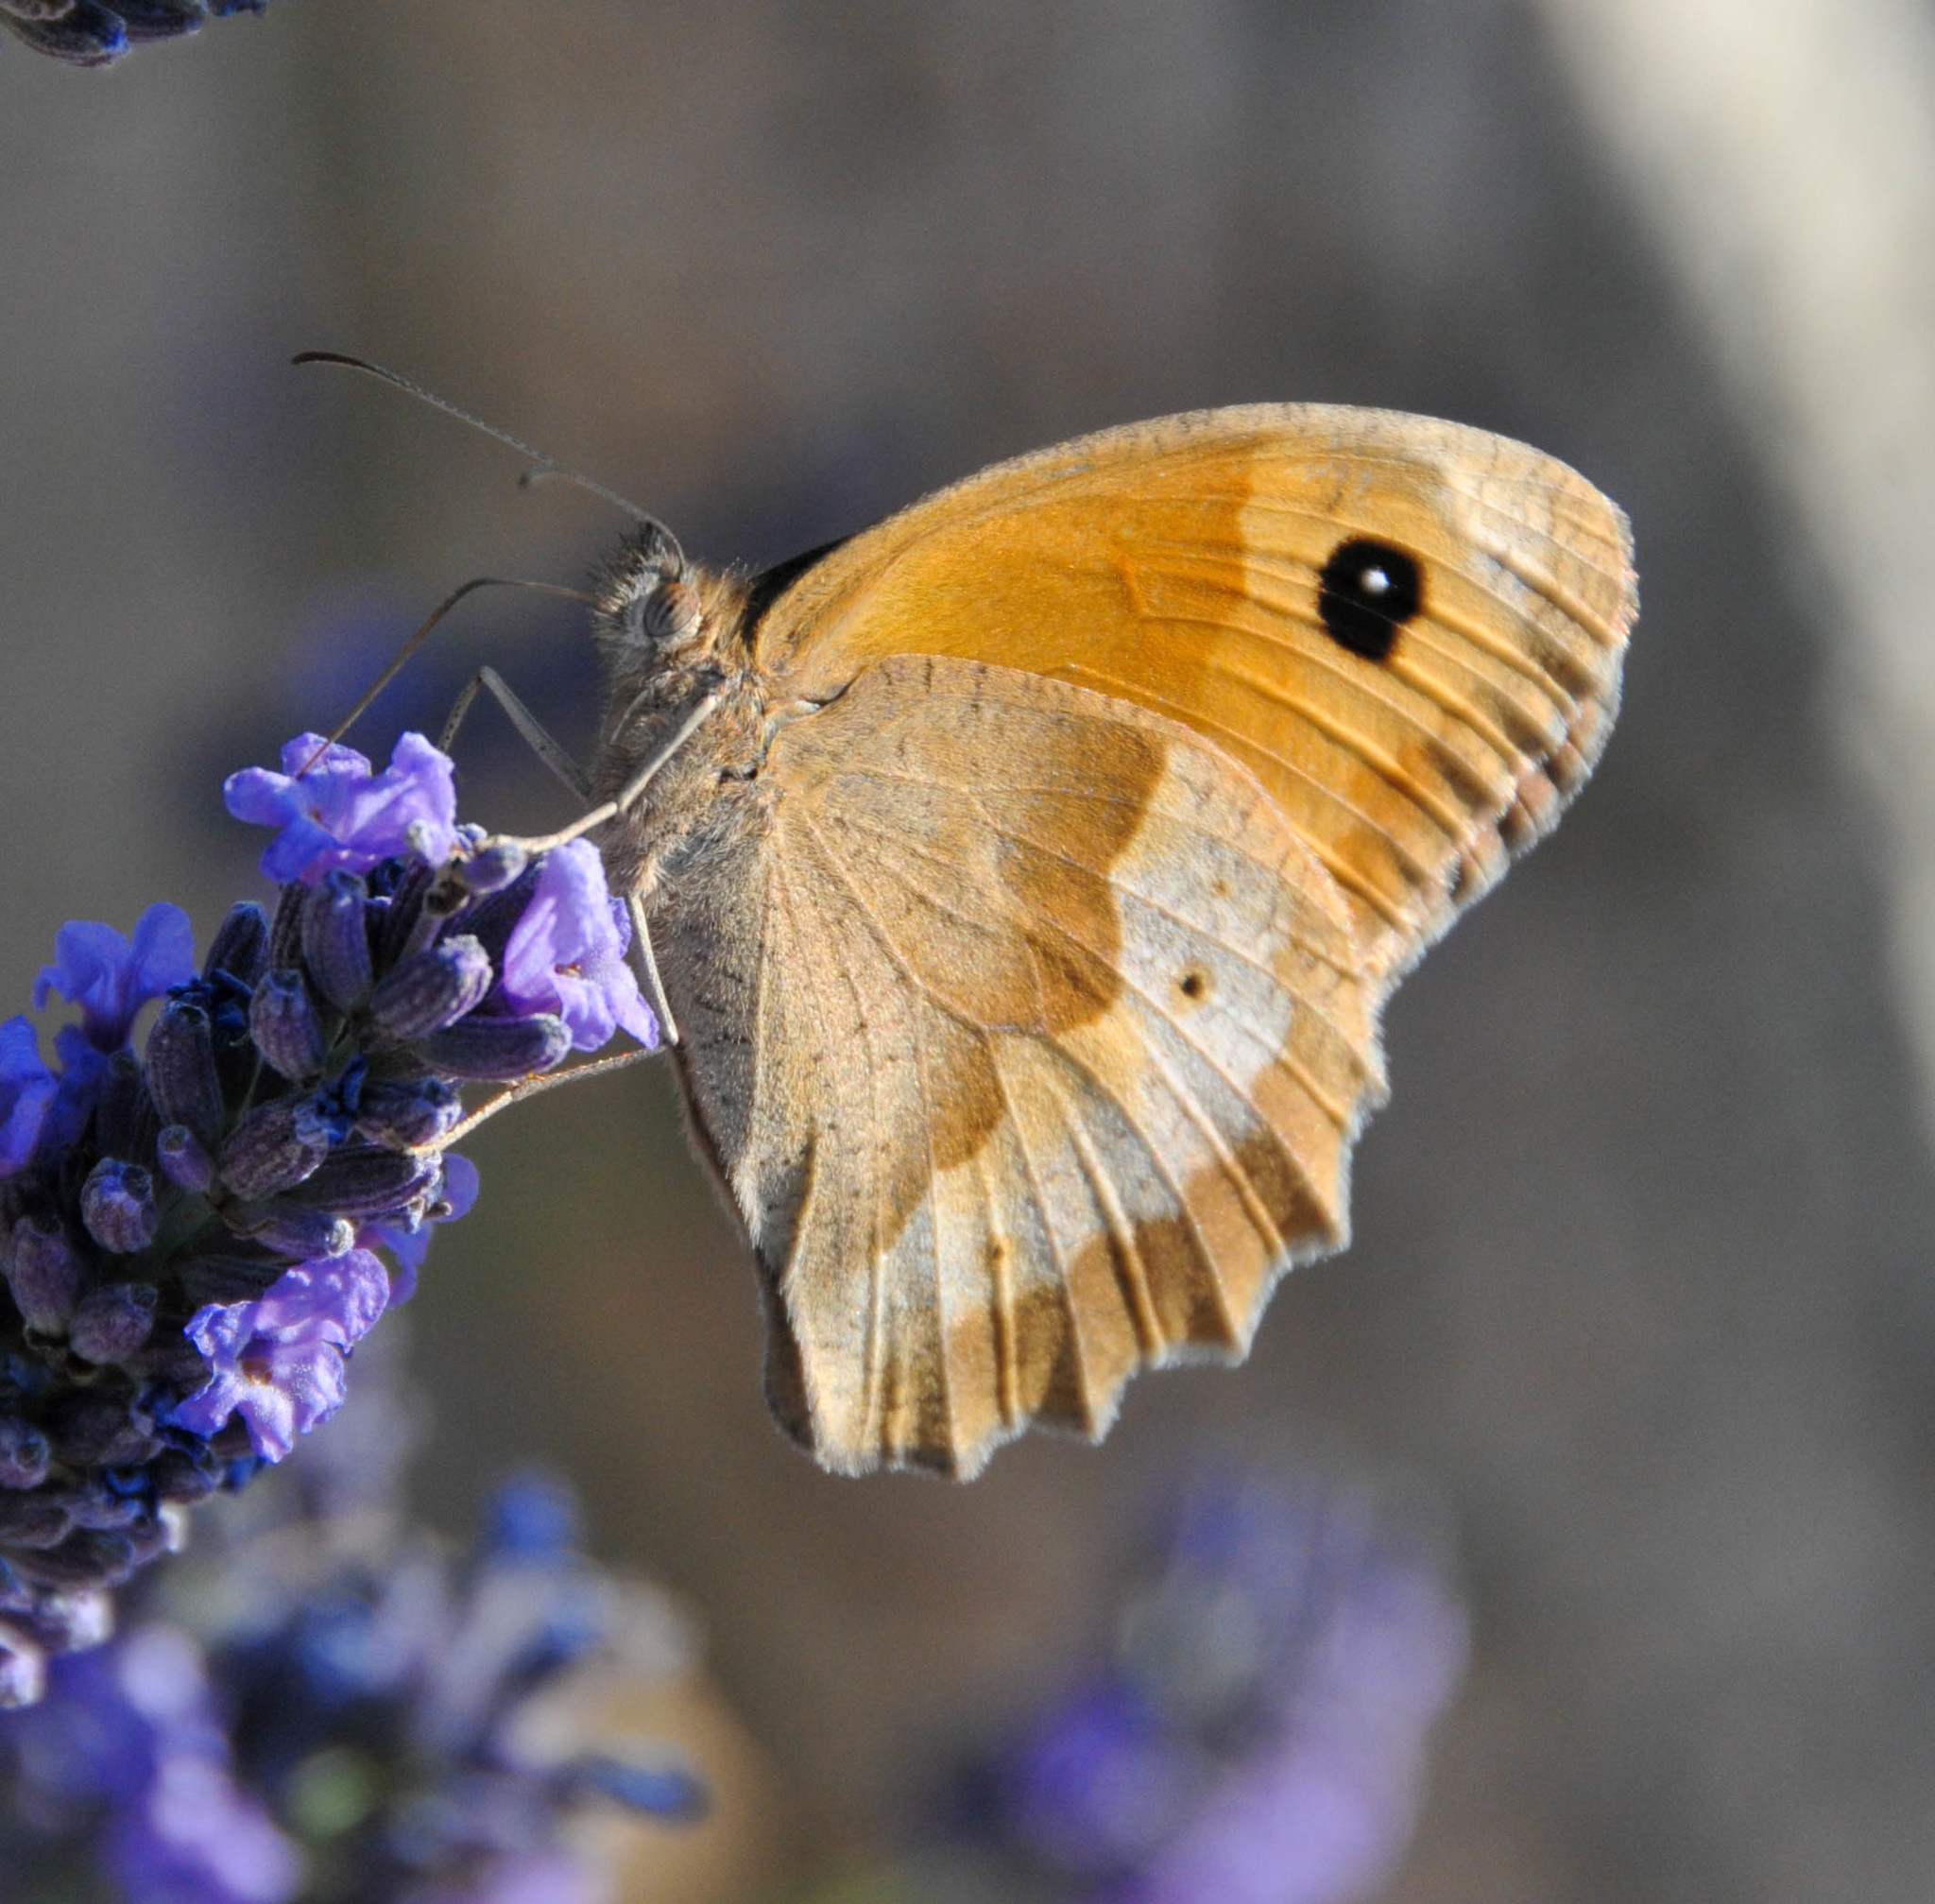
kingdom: Animalia
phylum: Arthropoda
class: Insecta
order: Lepidoptera
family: Nymphalidae
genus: Maniola
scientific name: Maniola jurtina
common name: Meadow brown
